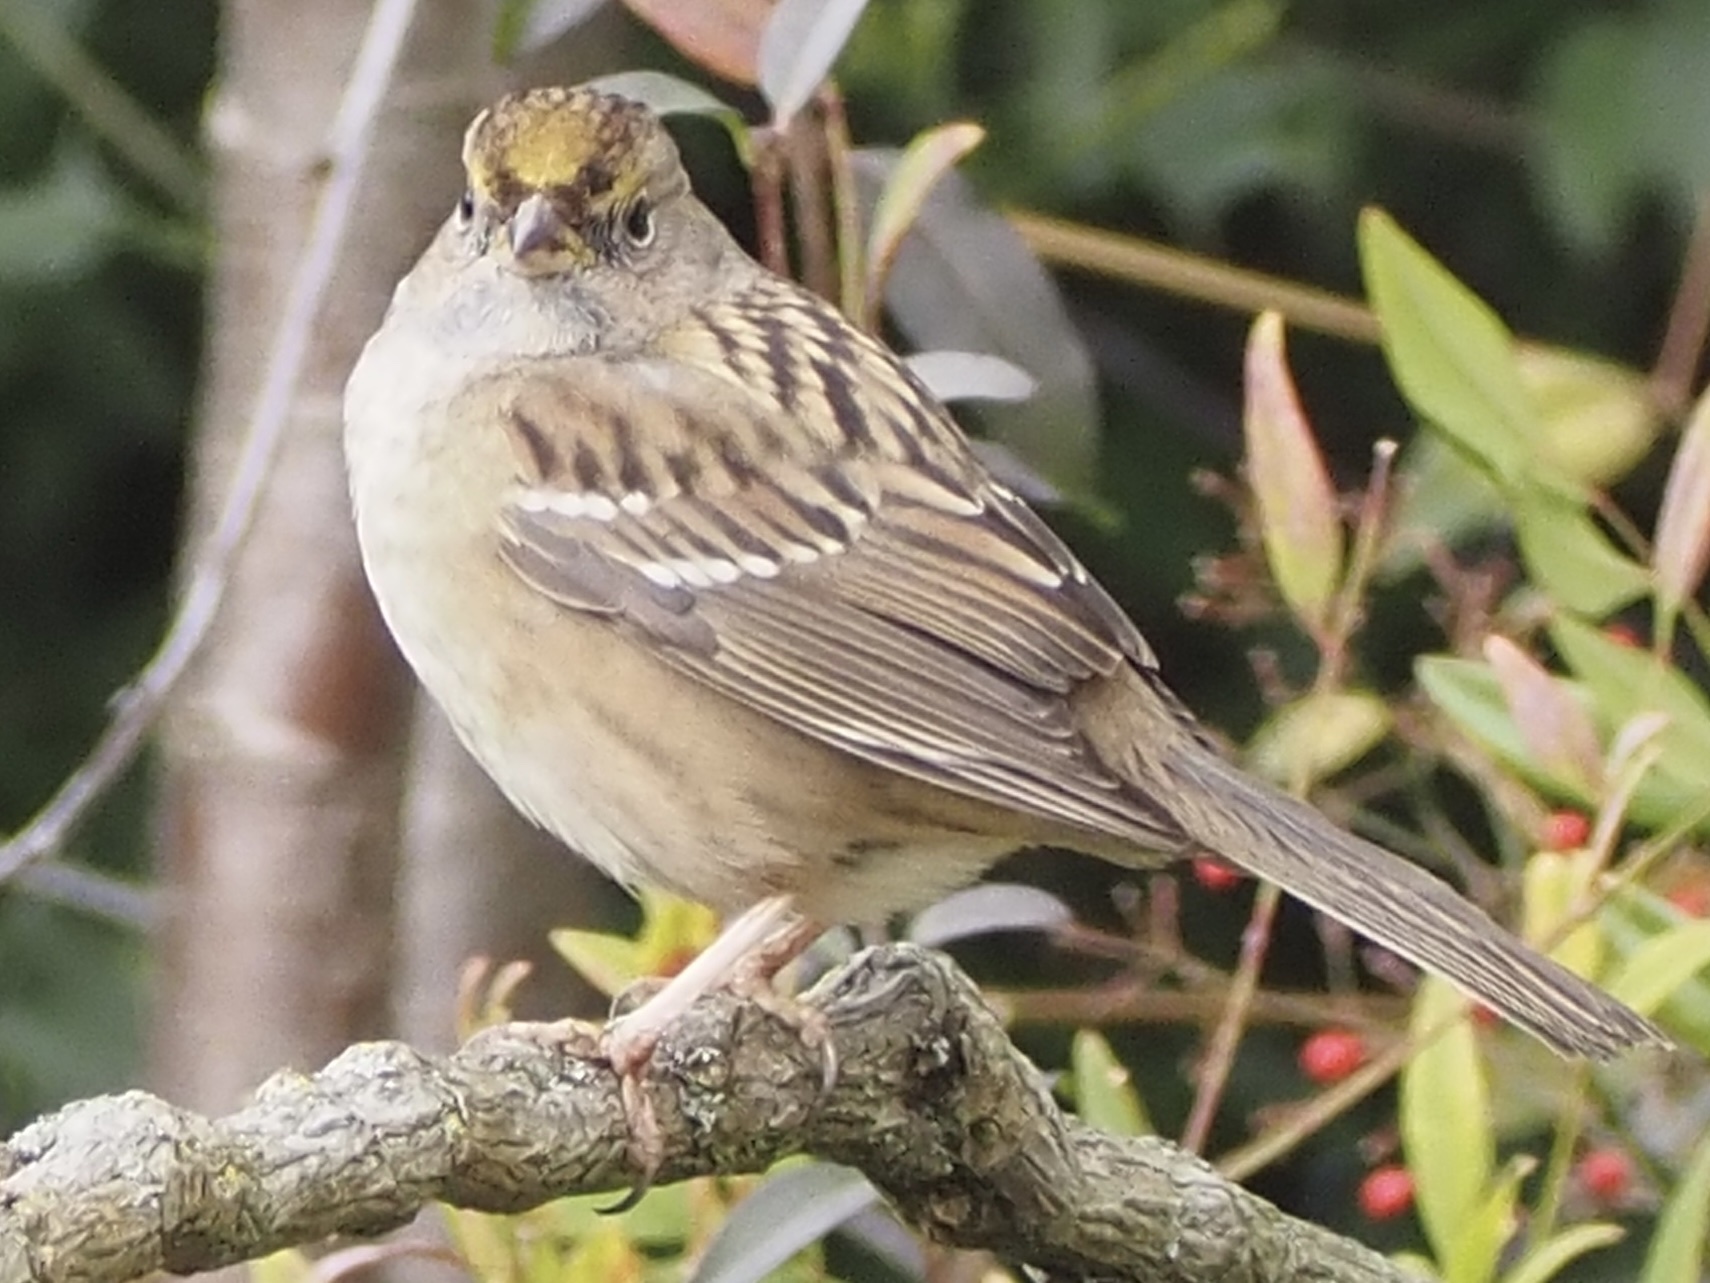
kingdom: Animalia
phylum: Chordata
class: Aves
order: Passeriformes
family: Passerellidae
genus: Zonotrichia
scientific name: Zonotrichia atricapilla
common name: Golden-crowned sparrow
